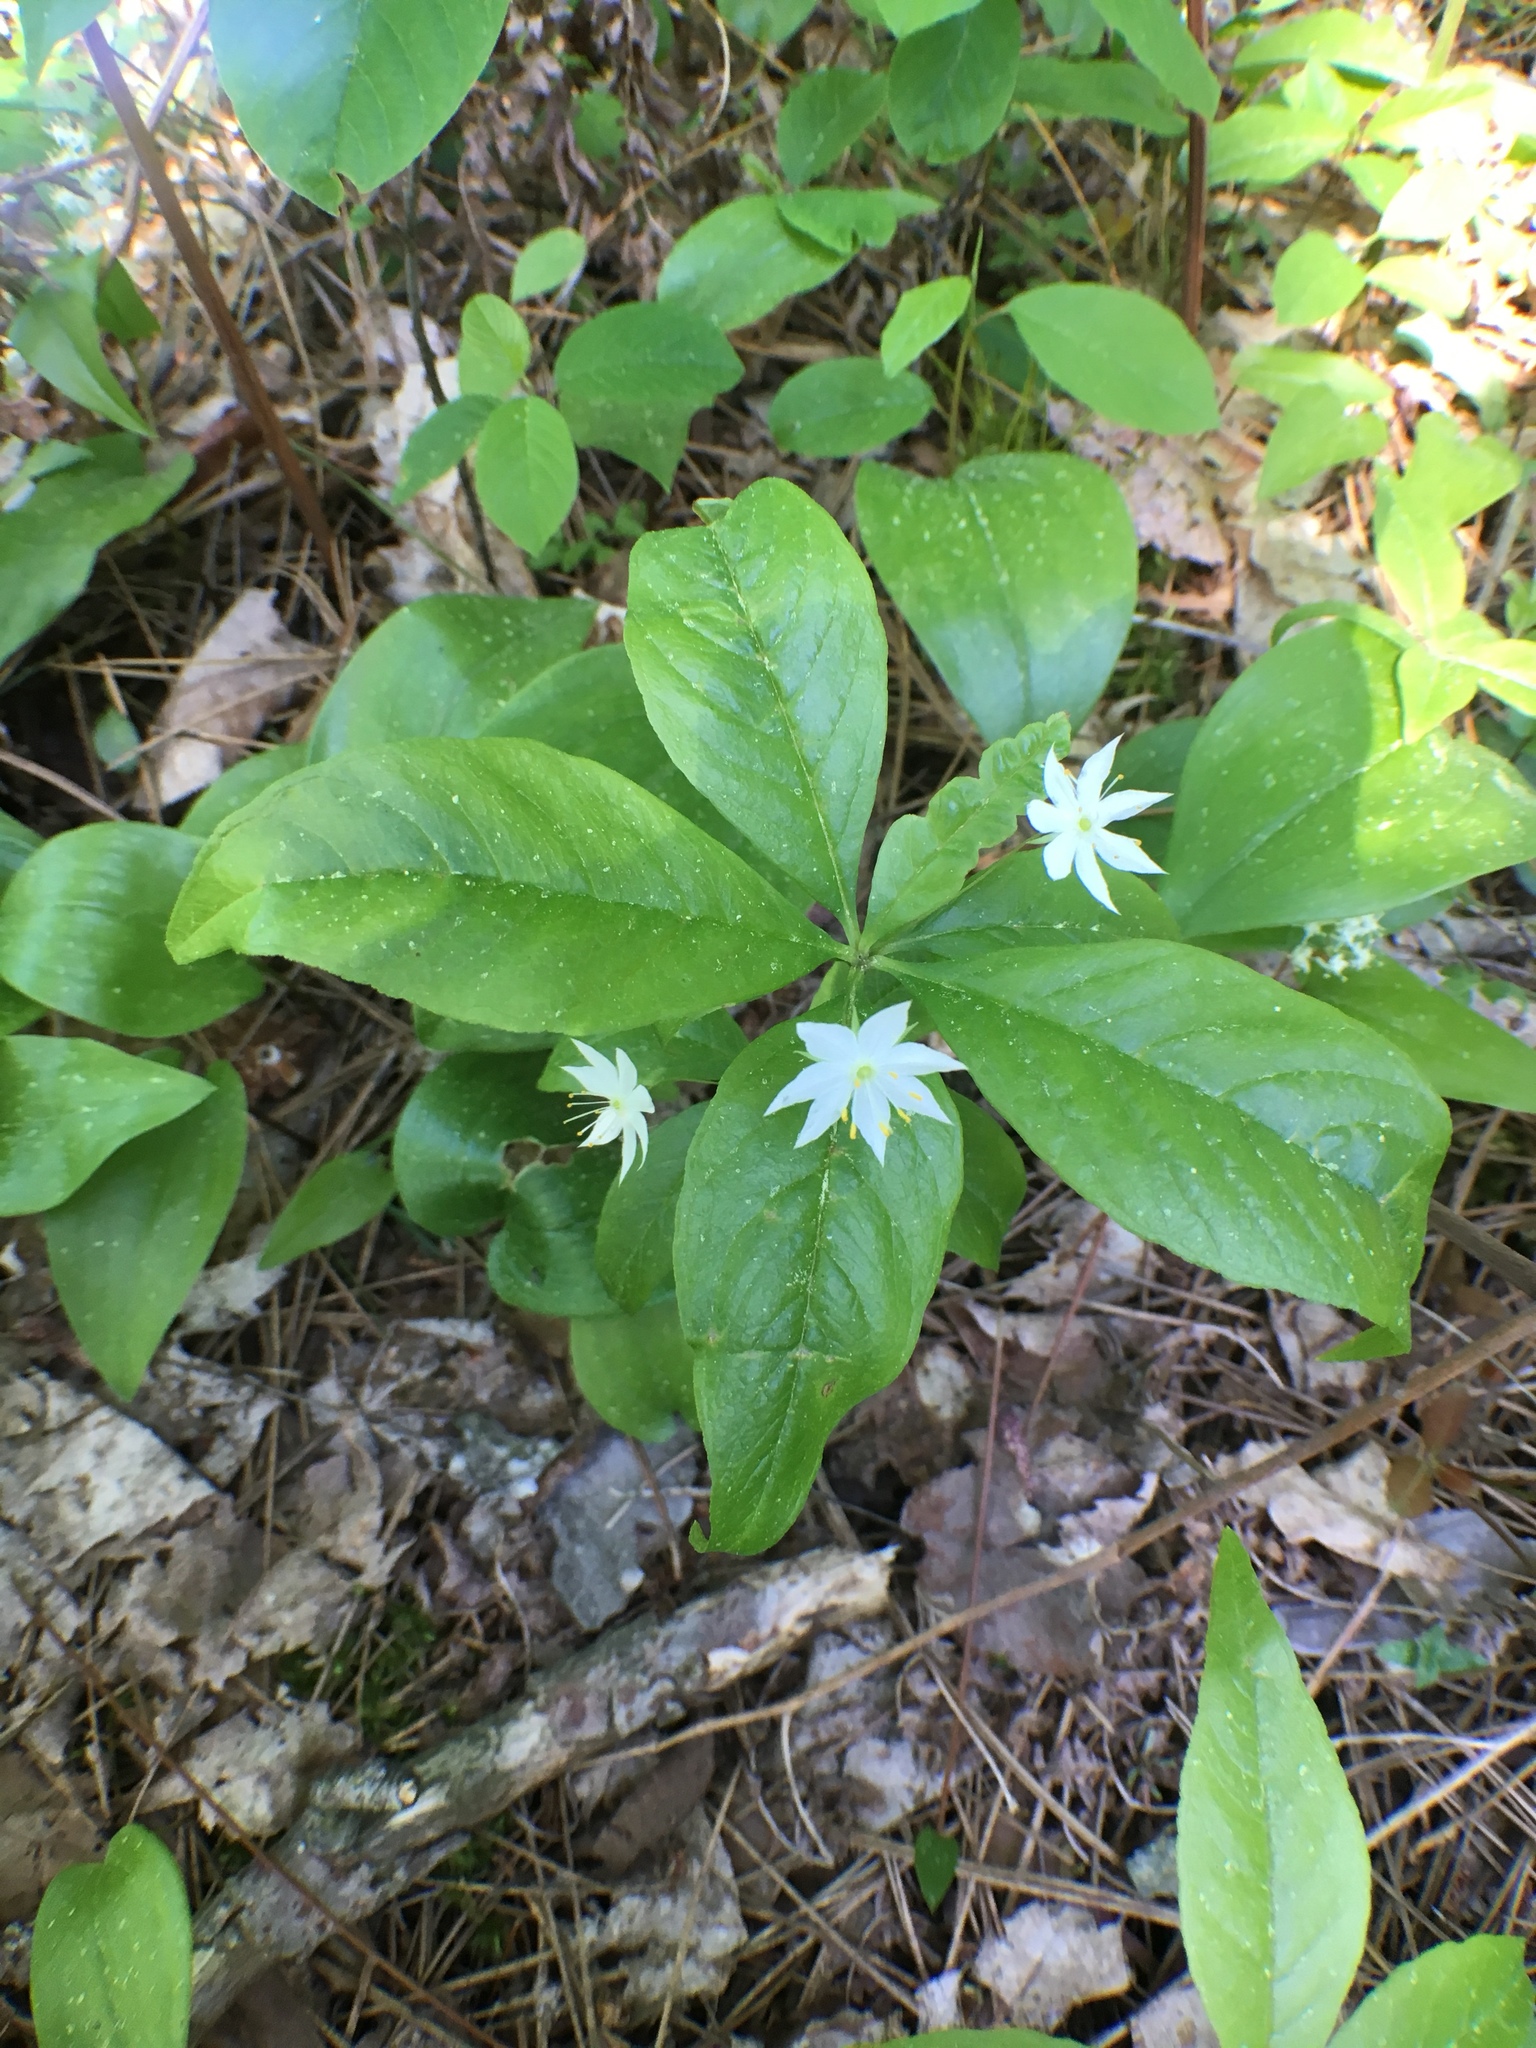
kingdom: Plantae
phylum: Tracheophyta
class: Magnoliopsida
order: Ericales
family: Primulaceae
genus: Lysimachia
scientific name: Lysimachia borealis
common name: American starflower
